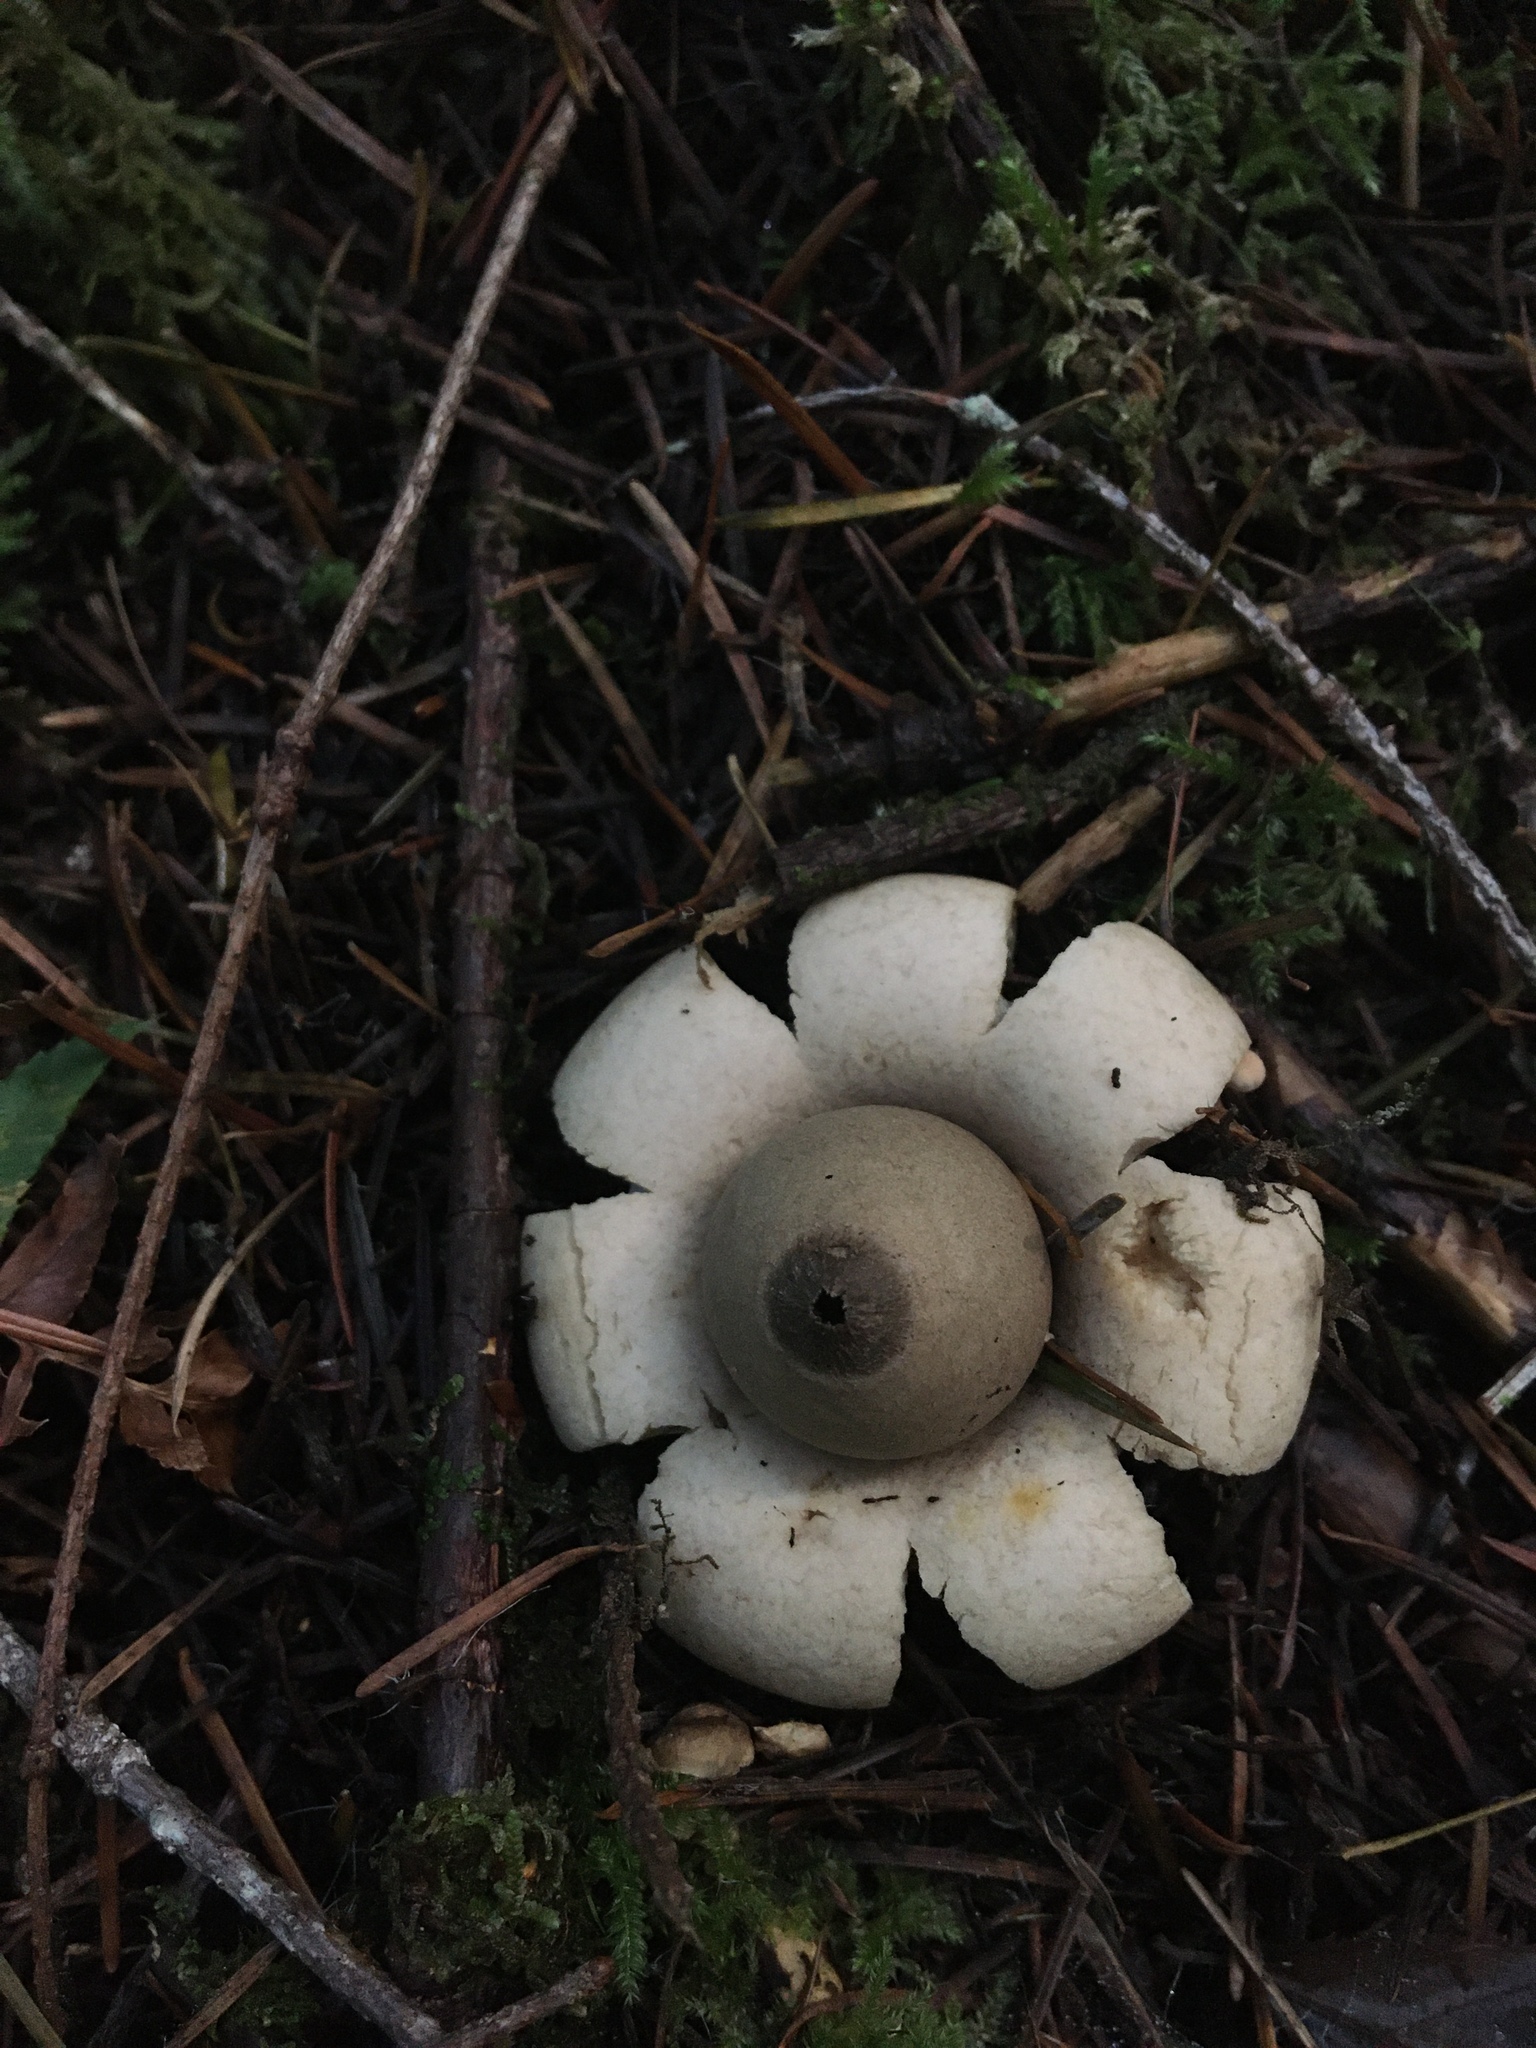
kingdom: Fungi
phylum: Basidiomycota
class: Agaricomycetes
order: Geastrales
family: Geastraceae
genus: Geastrum
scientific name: Geastrum saccatum
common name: Rounded earthstar
